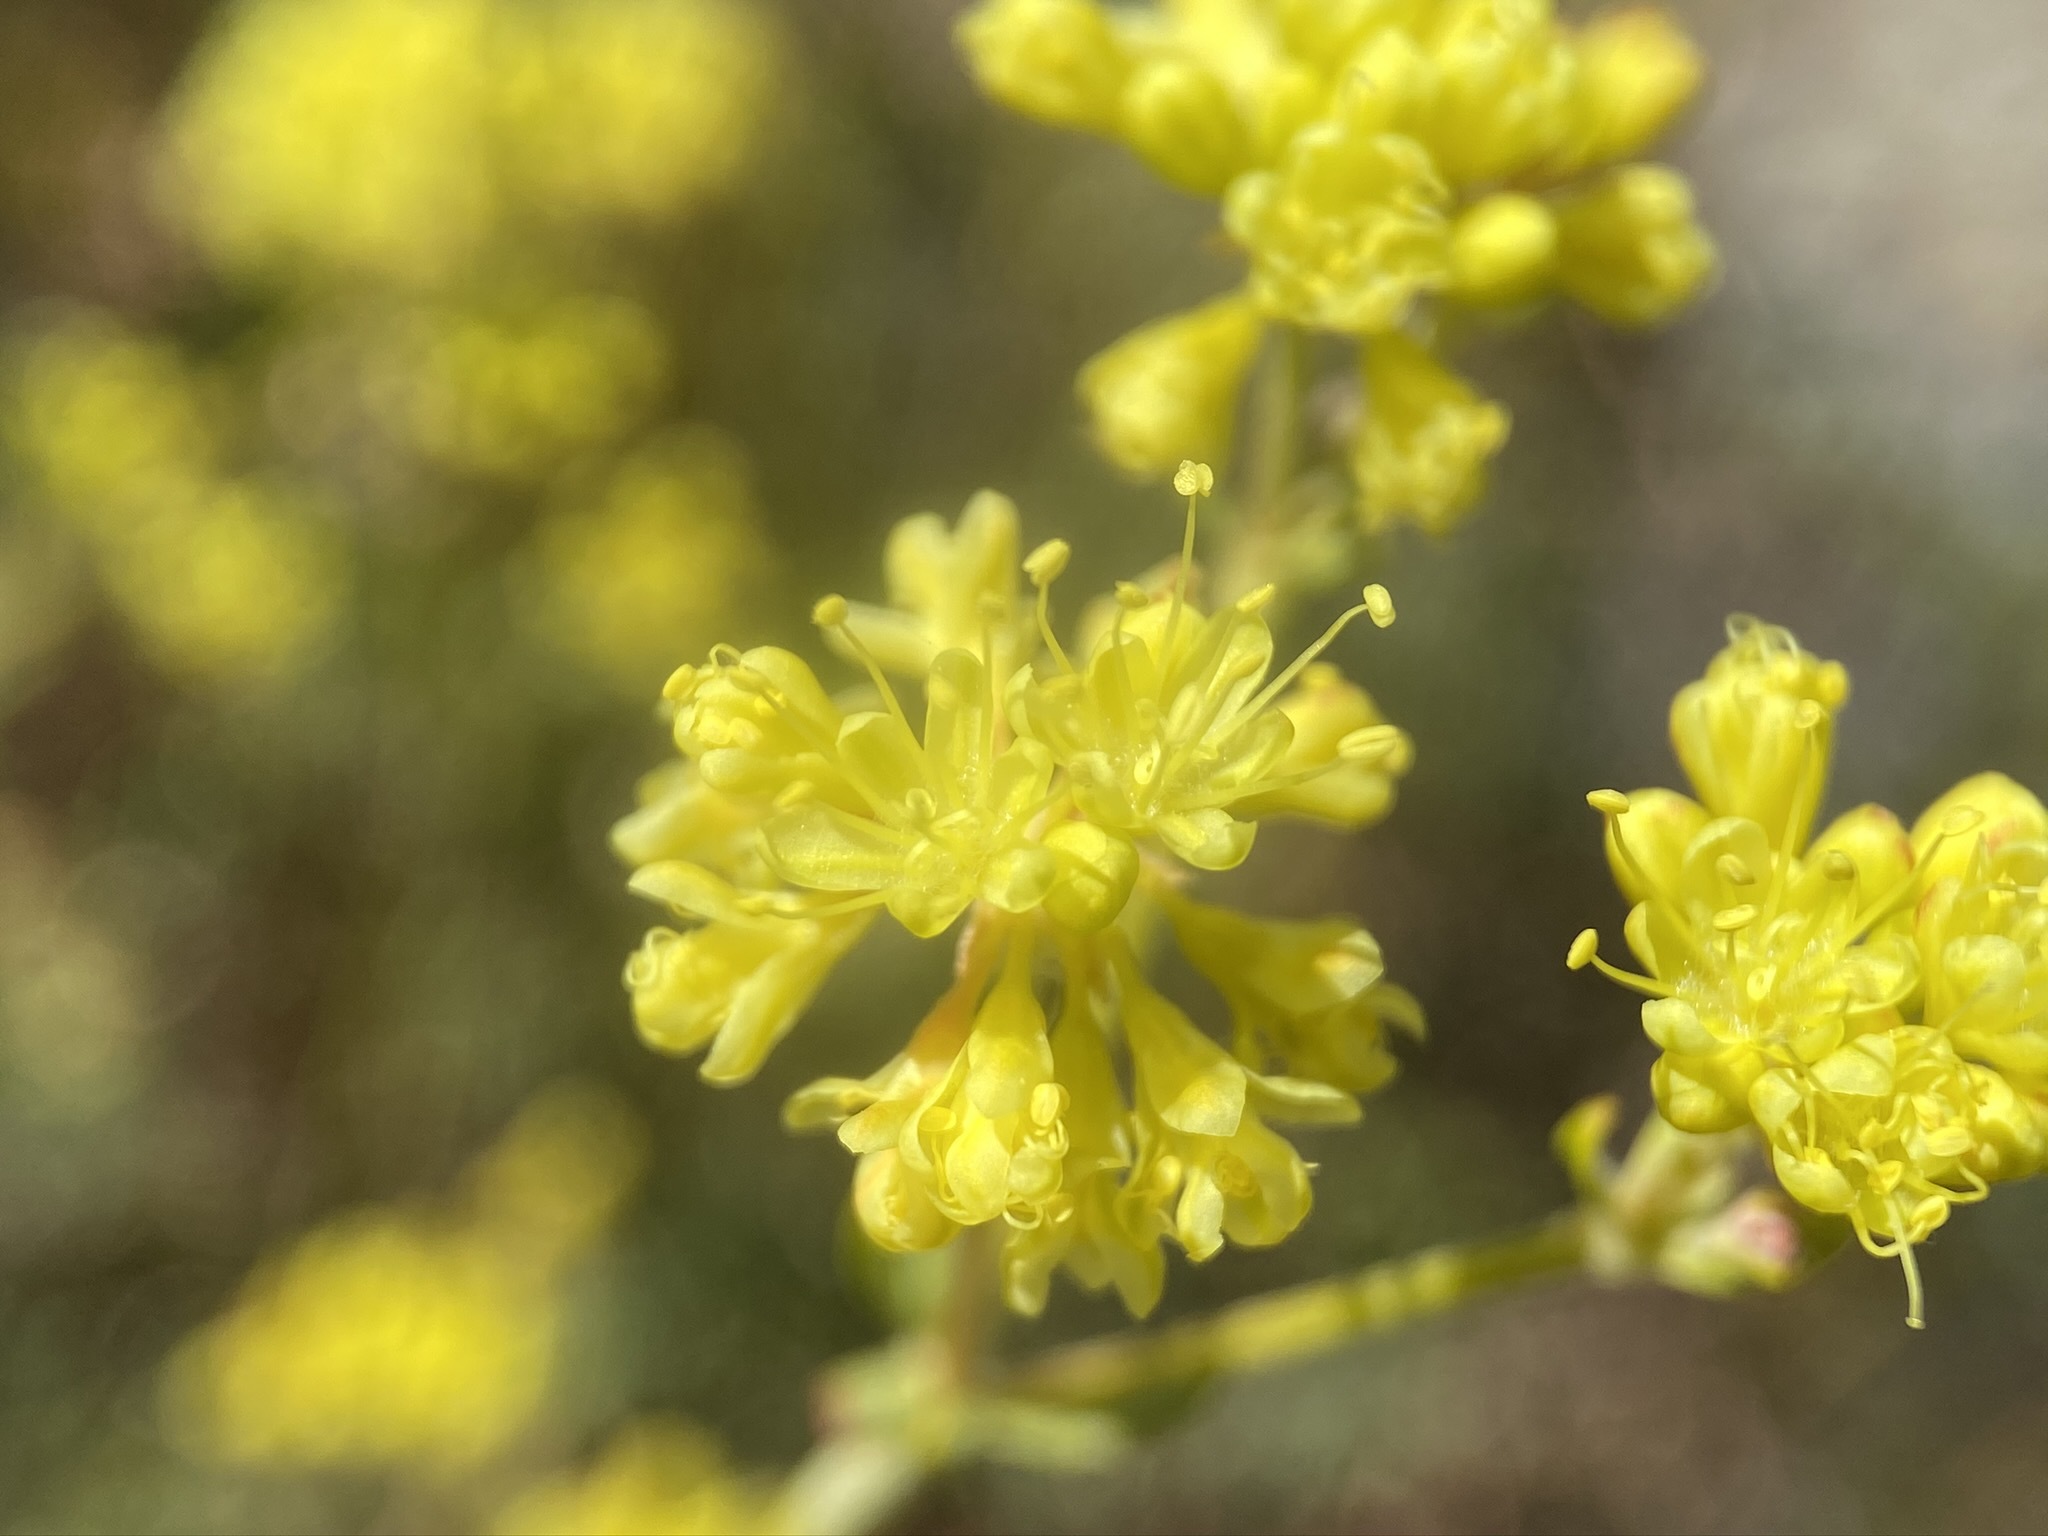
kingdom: Plantae
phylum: Tracheophyta
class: Magnoliopsida
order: Caryophyllales
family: Polygonaceae
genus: Eriogonum
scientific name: Eriogonum umbellatum
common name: Sulfur-buckwheat
